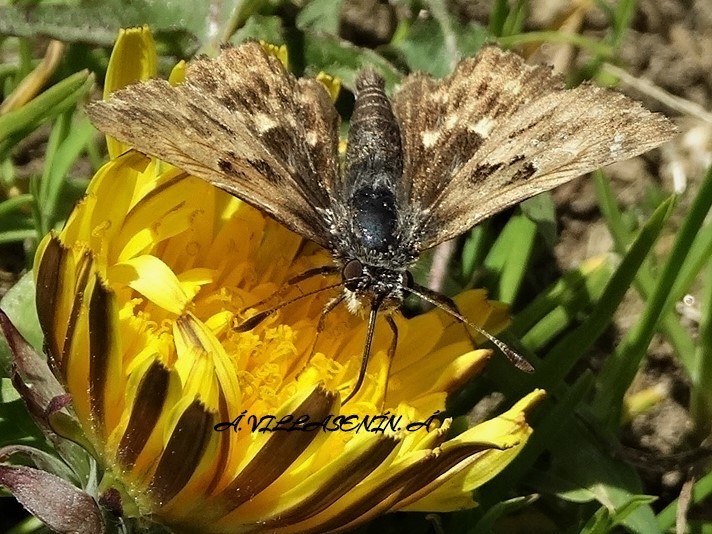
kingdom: Animalia
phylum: Arthropoda
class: Insecta
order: Lepidoptera
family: Hesperiidae
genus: Carcharodus
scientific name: Carcharodus alceae
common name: Mallow skipper
